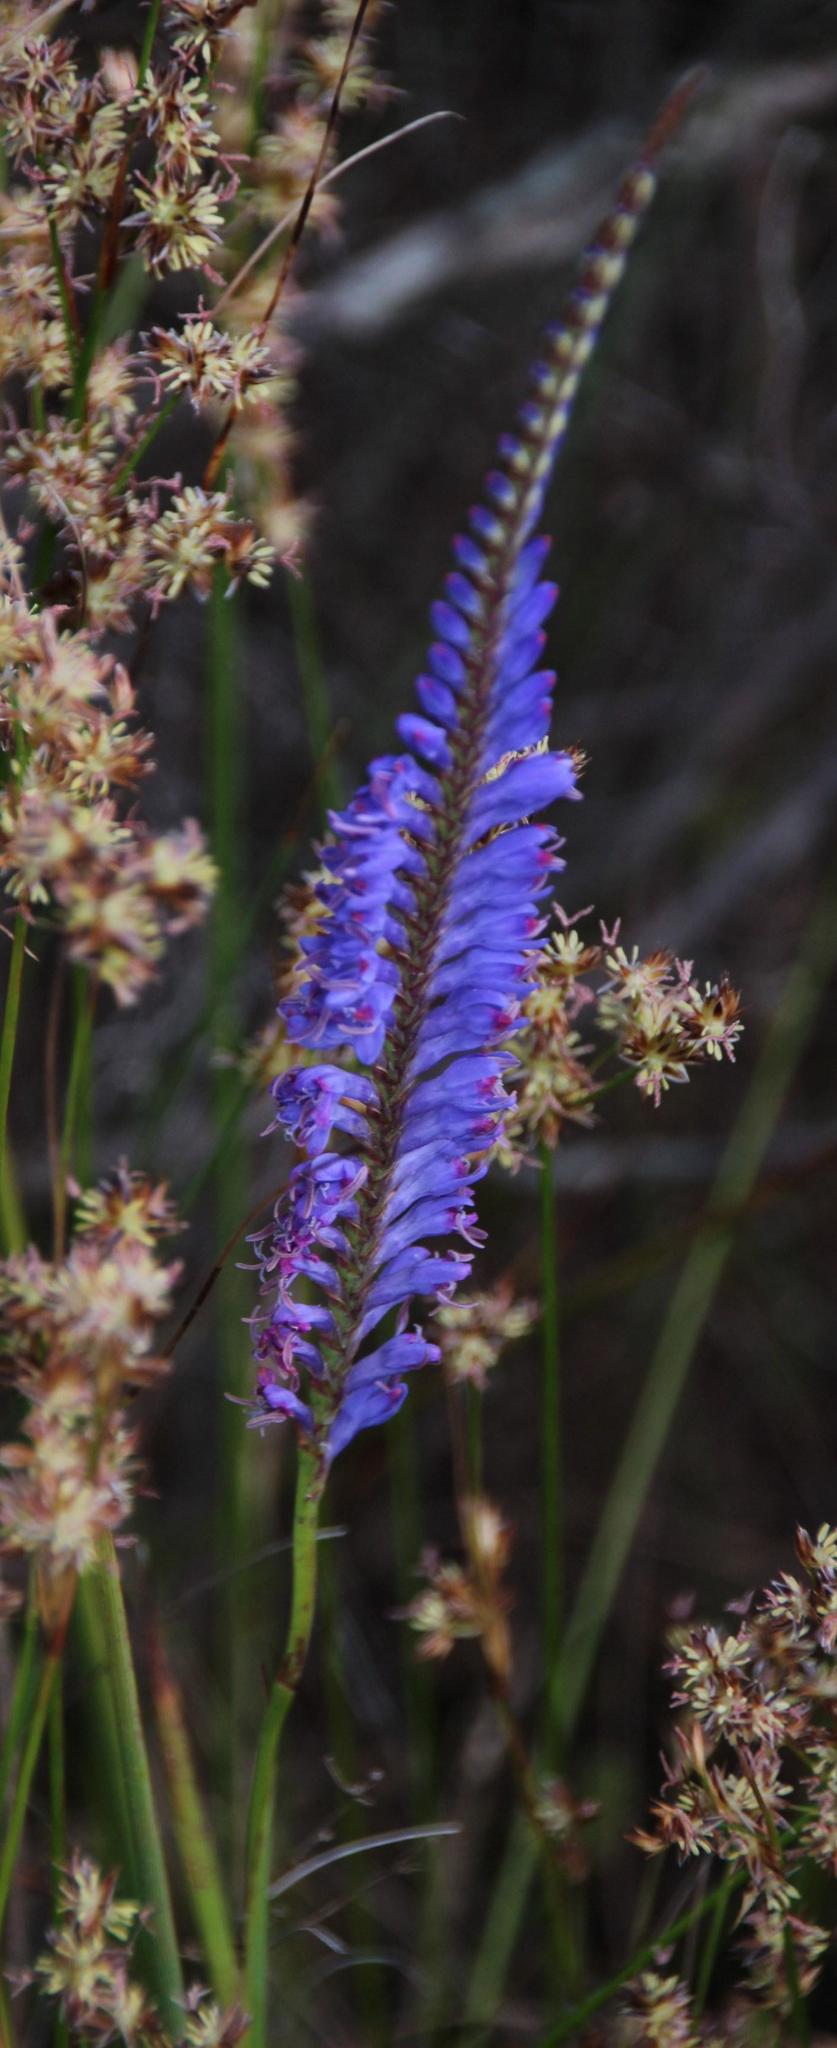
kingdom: Plantae
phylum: Tracheophyta
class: Liliopsida
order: Asparagales
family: Iridaceae
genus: Micranthus
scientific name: Micranthus plantagineus
